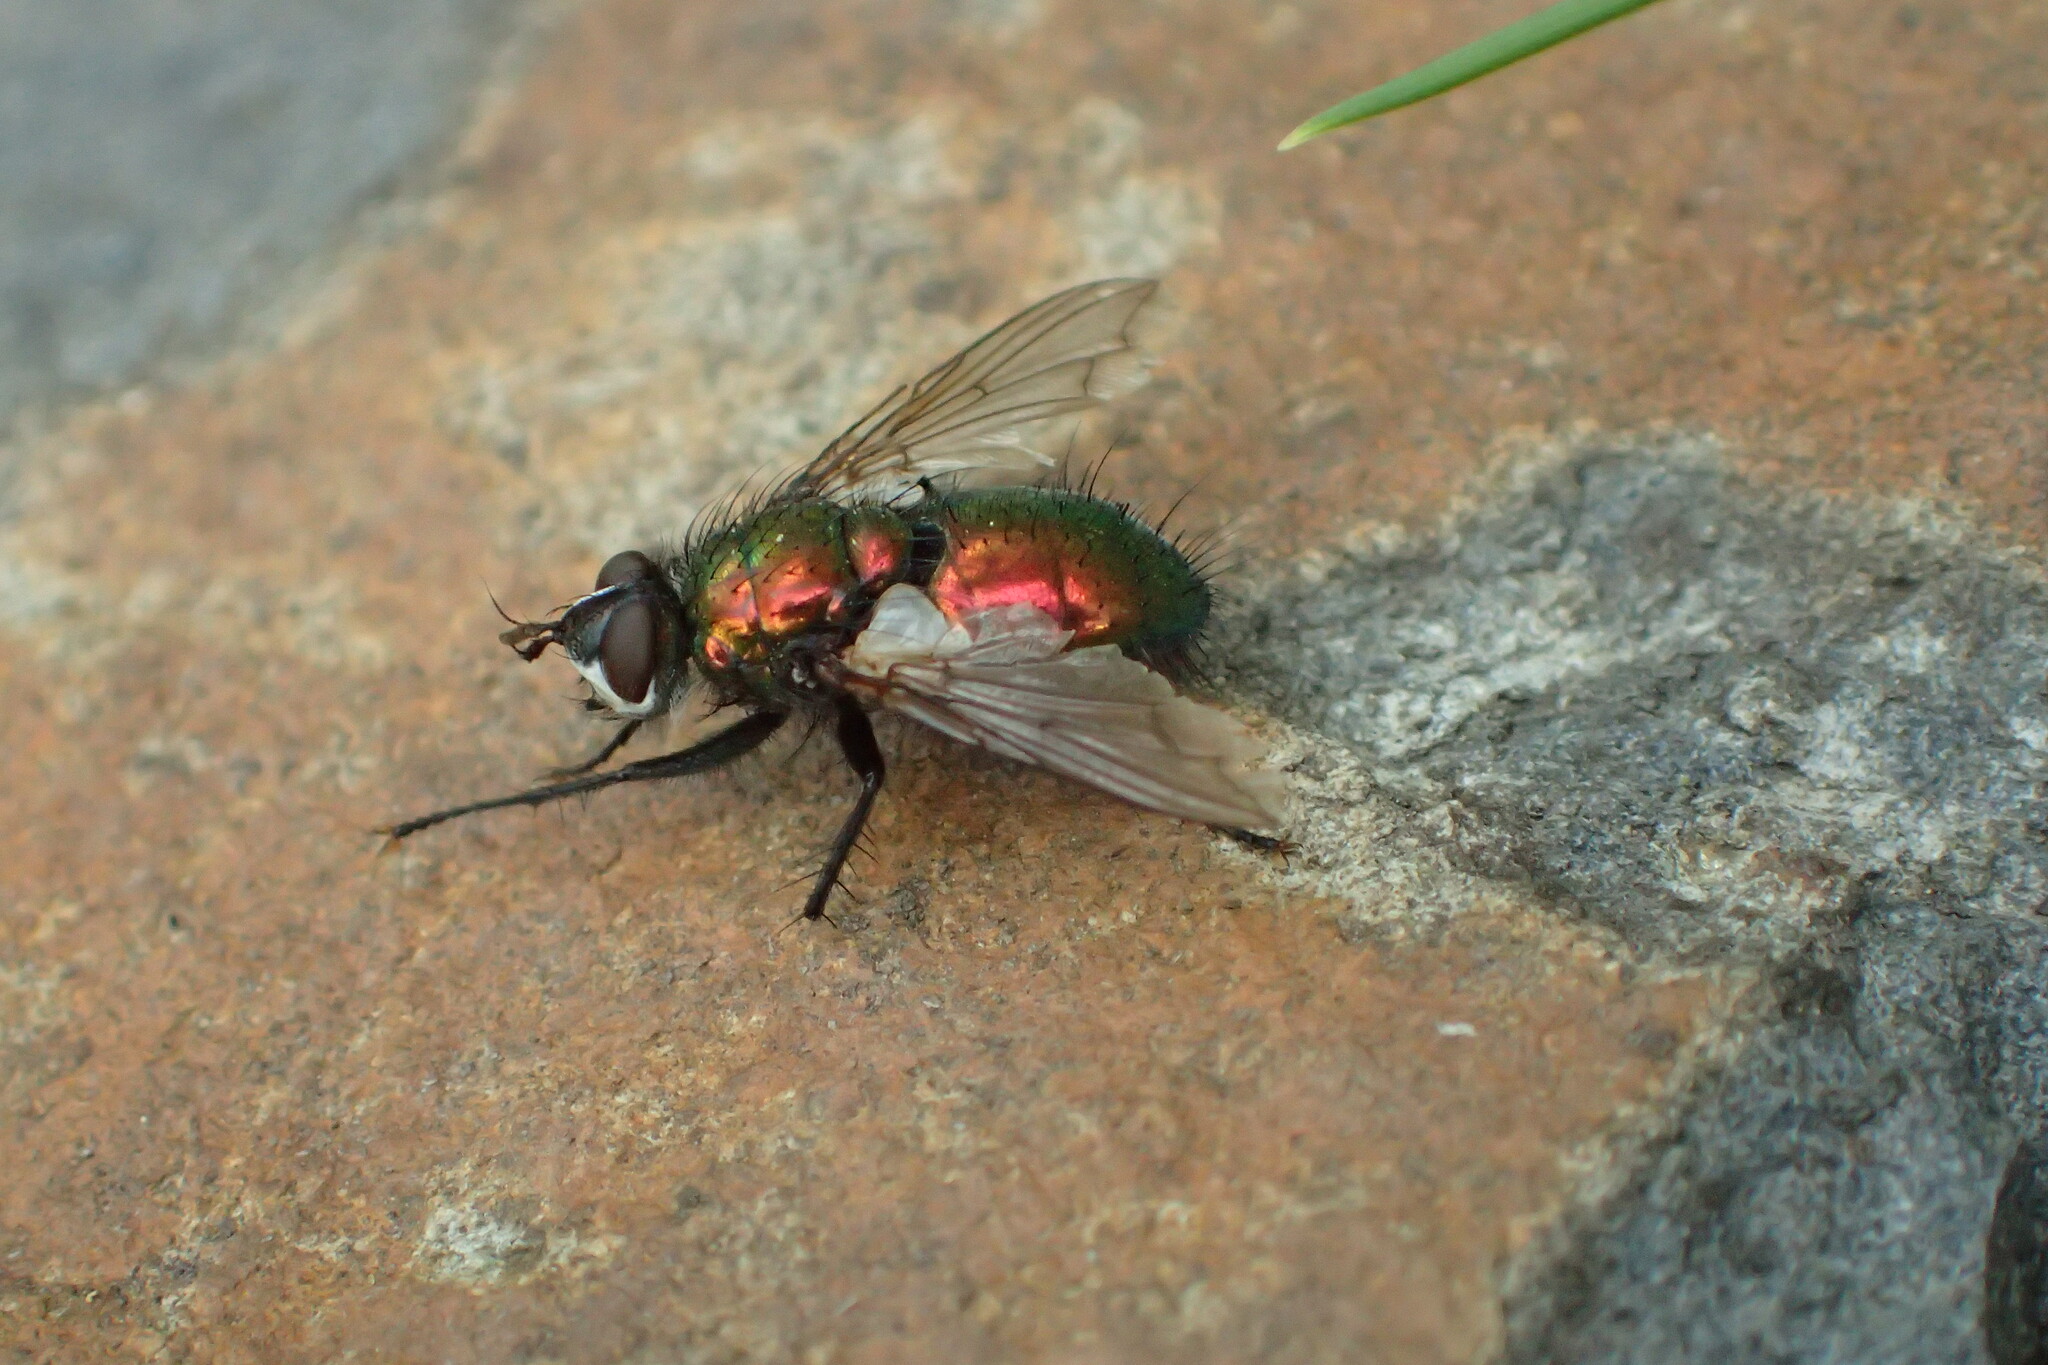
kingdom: Animalia
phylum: Arthropoda
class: Insecta
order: Diptera
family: Tachinidae
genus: Gymnocheta
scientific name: Gymnocheta viridis
